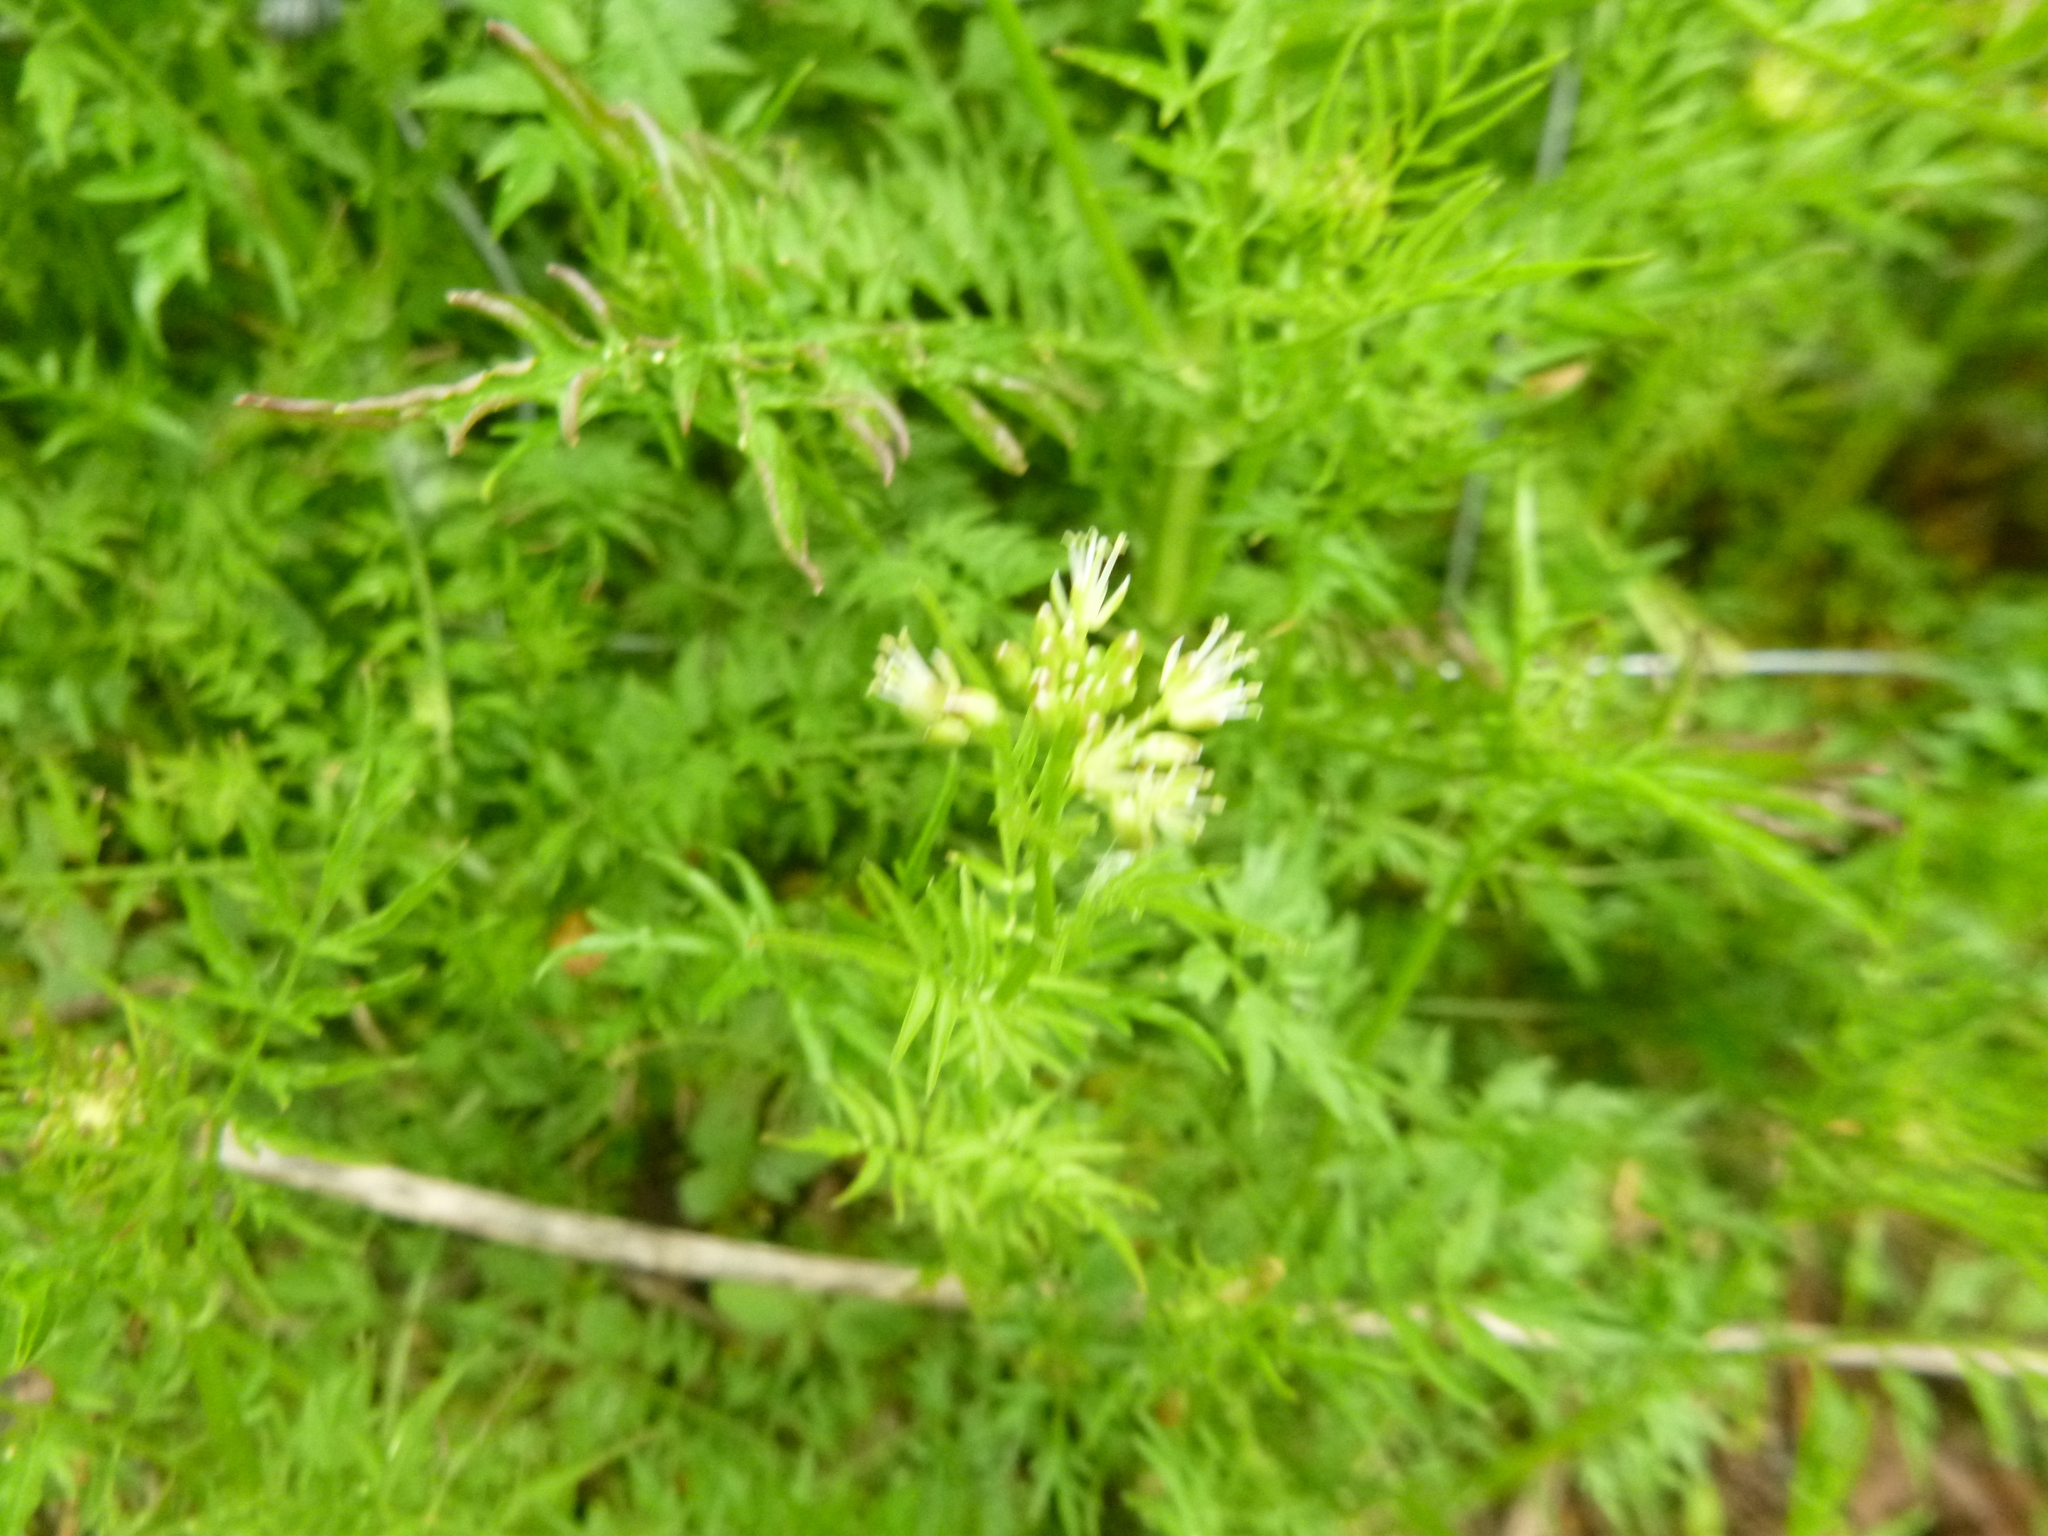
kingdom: Plantae
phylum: Tracheophyta
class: Magnoliopsida
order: Brassicales
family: Brassicaceae
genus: Cardamine
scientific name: Cardamine impatiens
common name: Narrow-leaved bitter-cress
